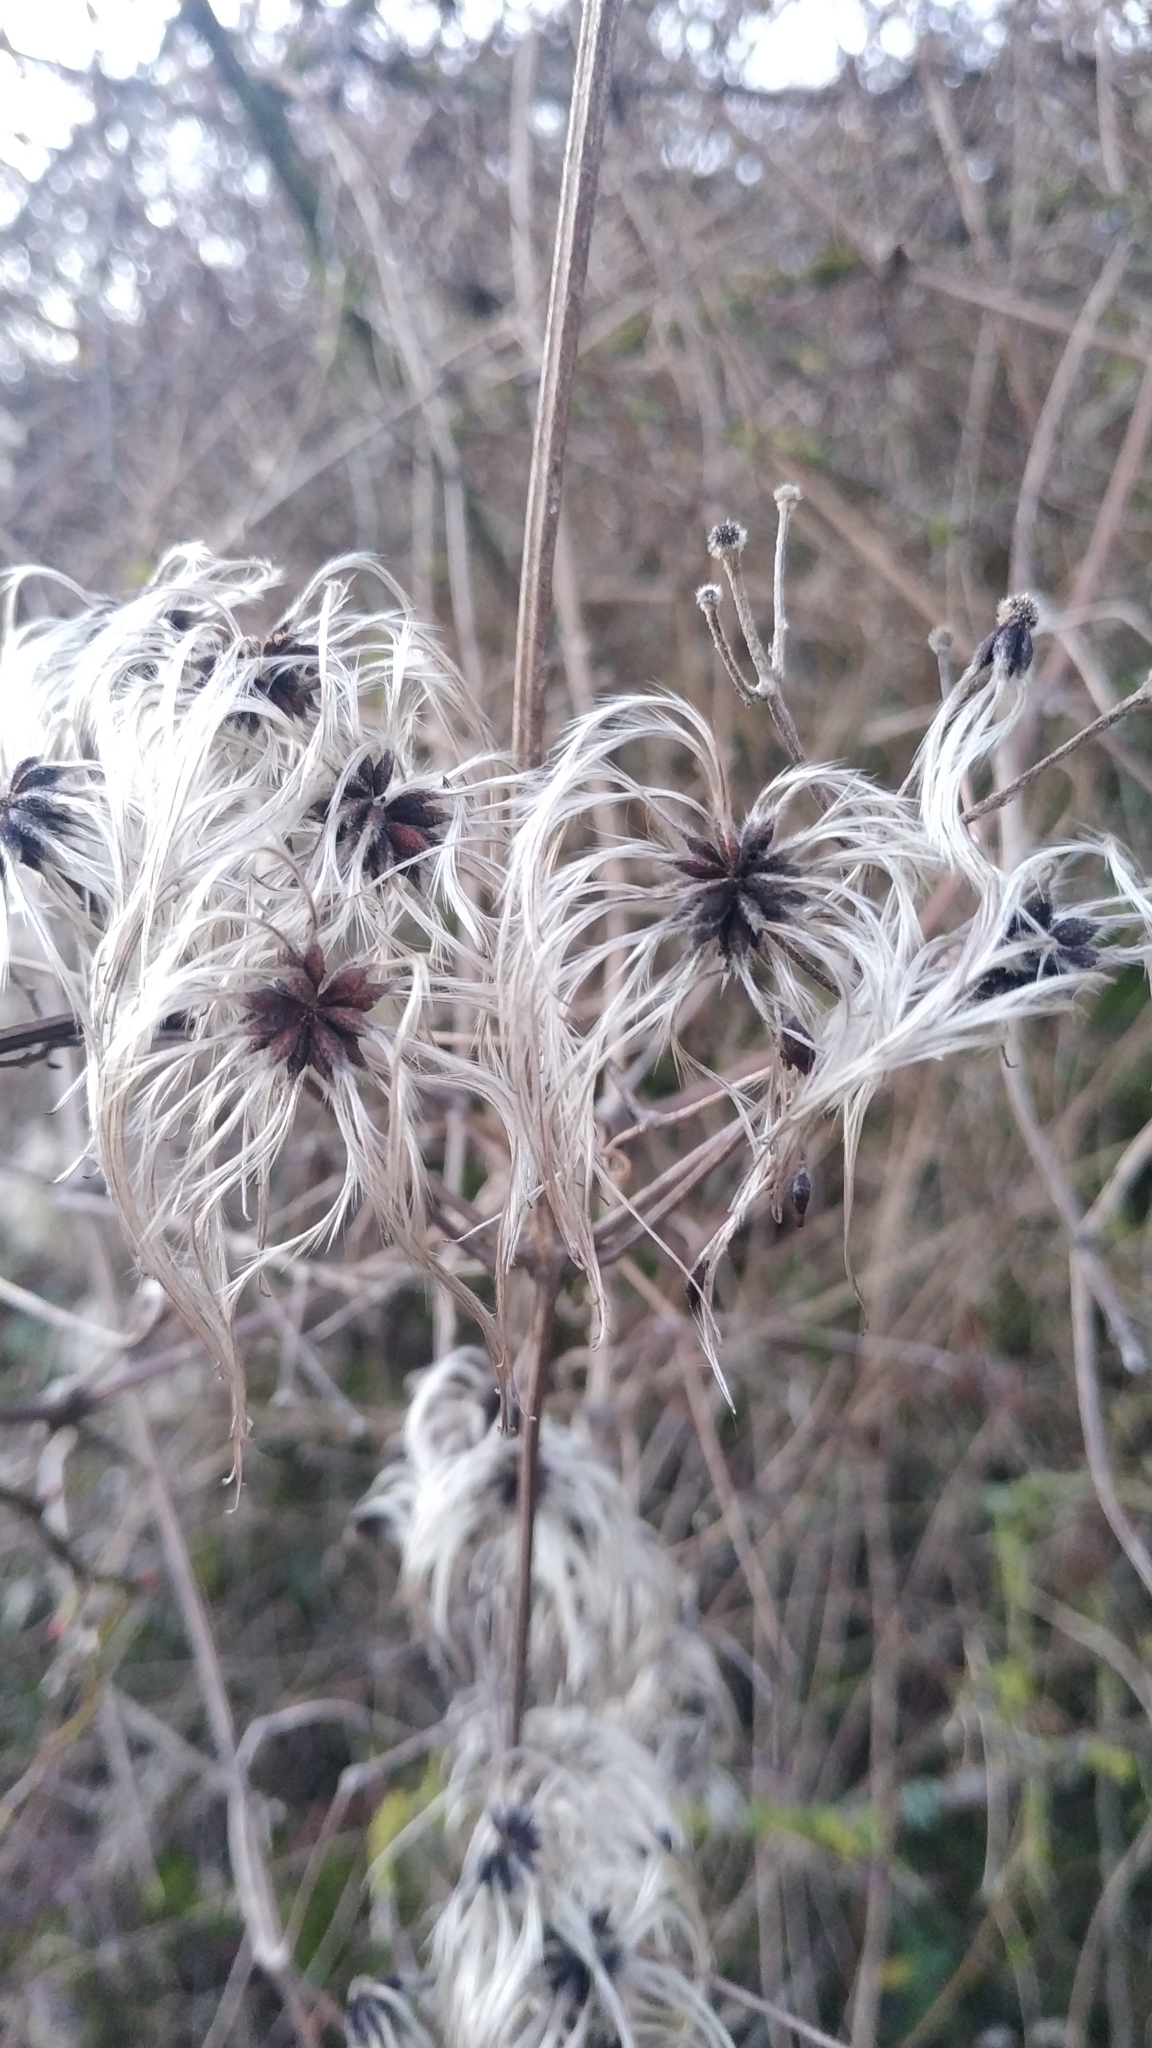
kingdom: Plantae
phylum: Tracheophyta
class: Magnoliopsida
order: Ranunculales
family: Ranunculaceae
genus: Clematis
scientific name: Clematis vitalba
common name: Evergreen clematis
